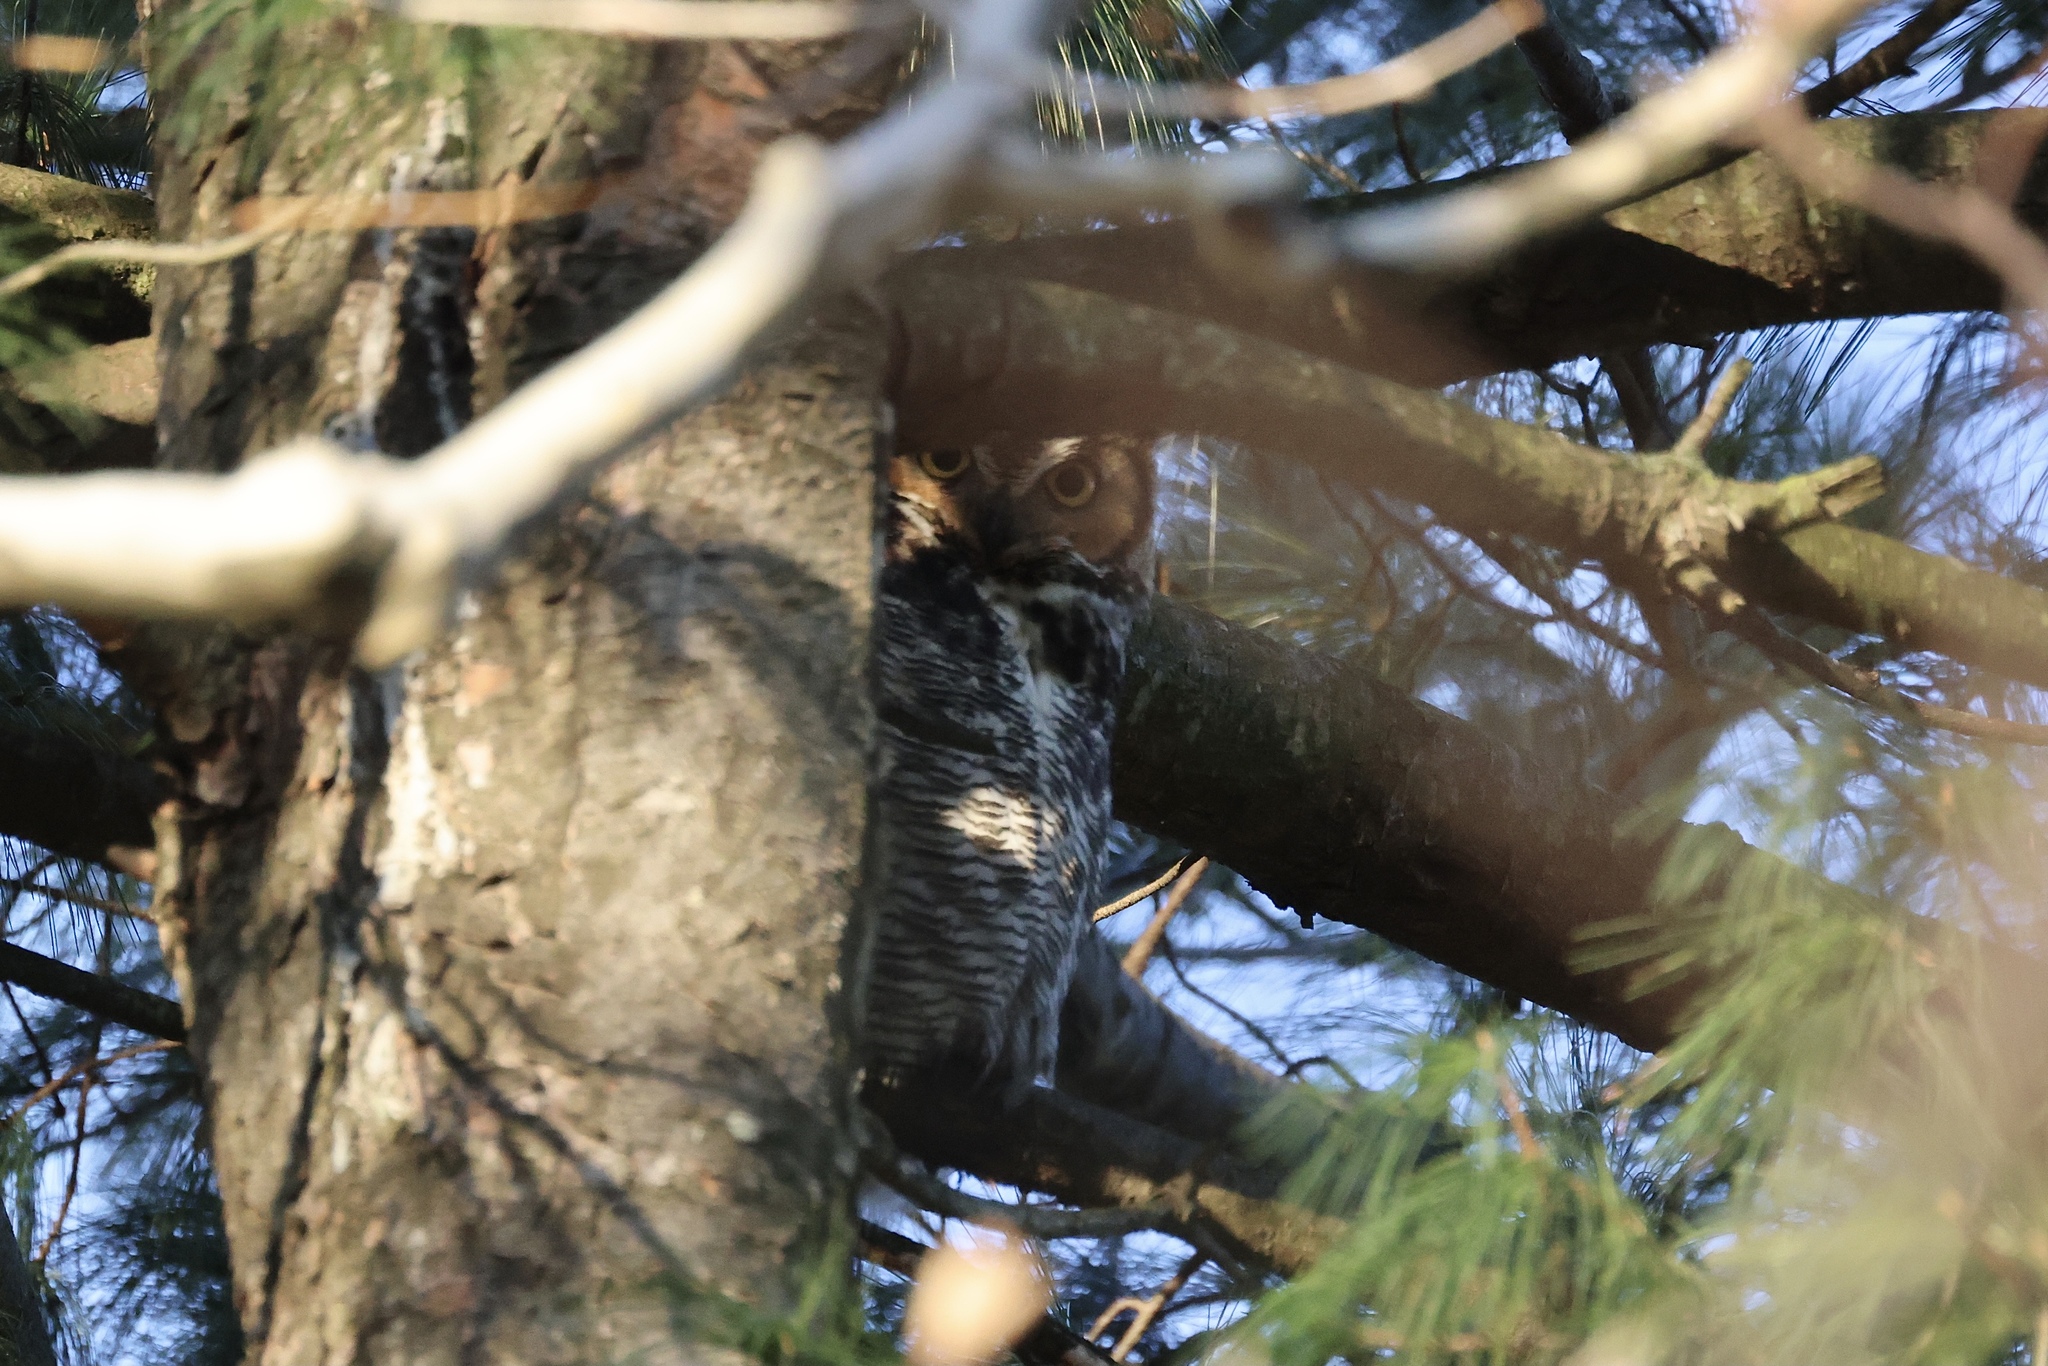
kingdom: Animalia
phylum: Chordata
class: Aves
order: Strigiformes
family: Strigidae
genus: Bubo
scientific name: Bubo virginianus
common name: Great horned owl
